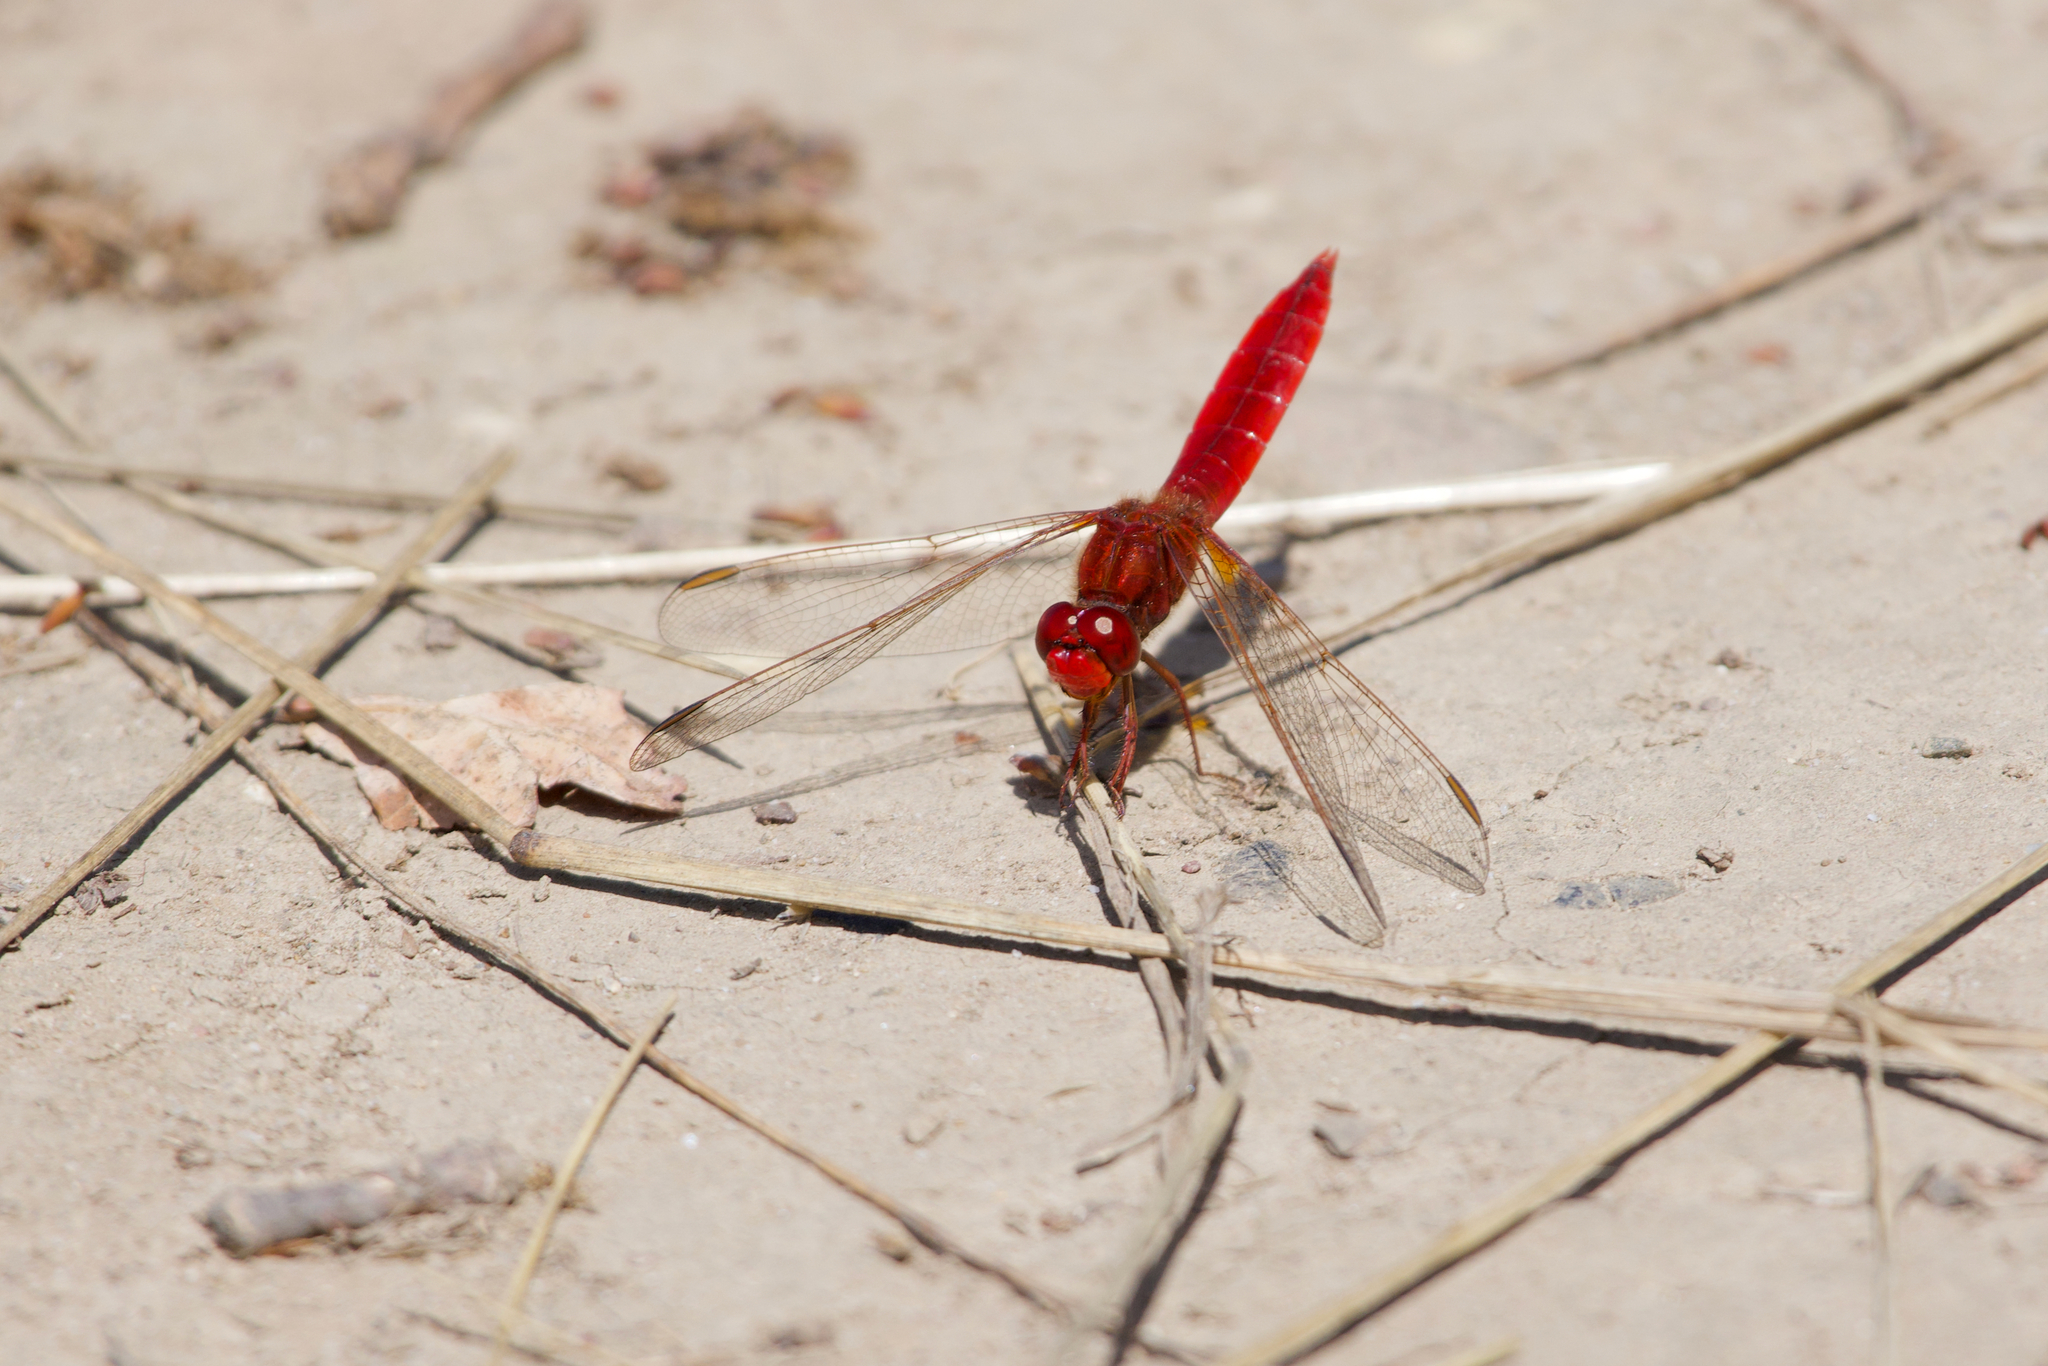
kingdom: Animalia
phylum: Arthropoda
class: Insecta
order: Odonata
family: Libellulidae
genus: Crocothemis
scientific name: Crocothemis erythraea
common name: Scarlet dragonfly
